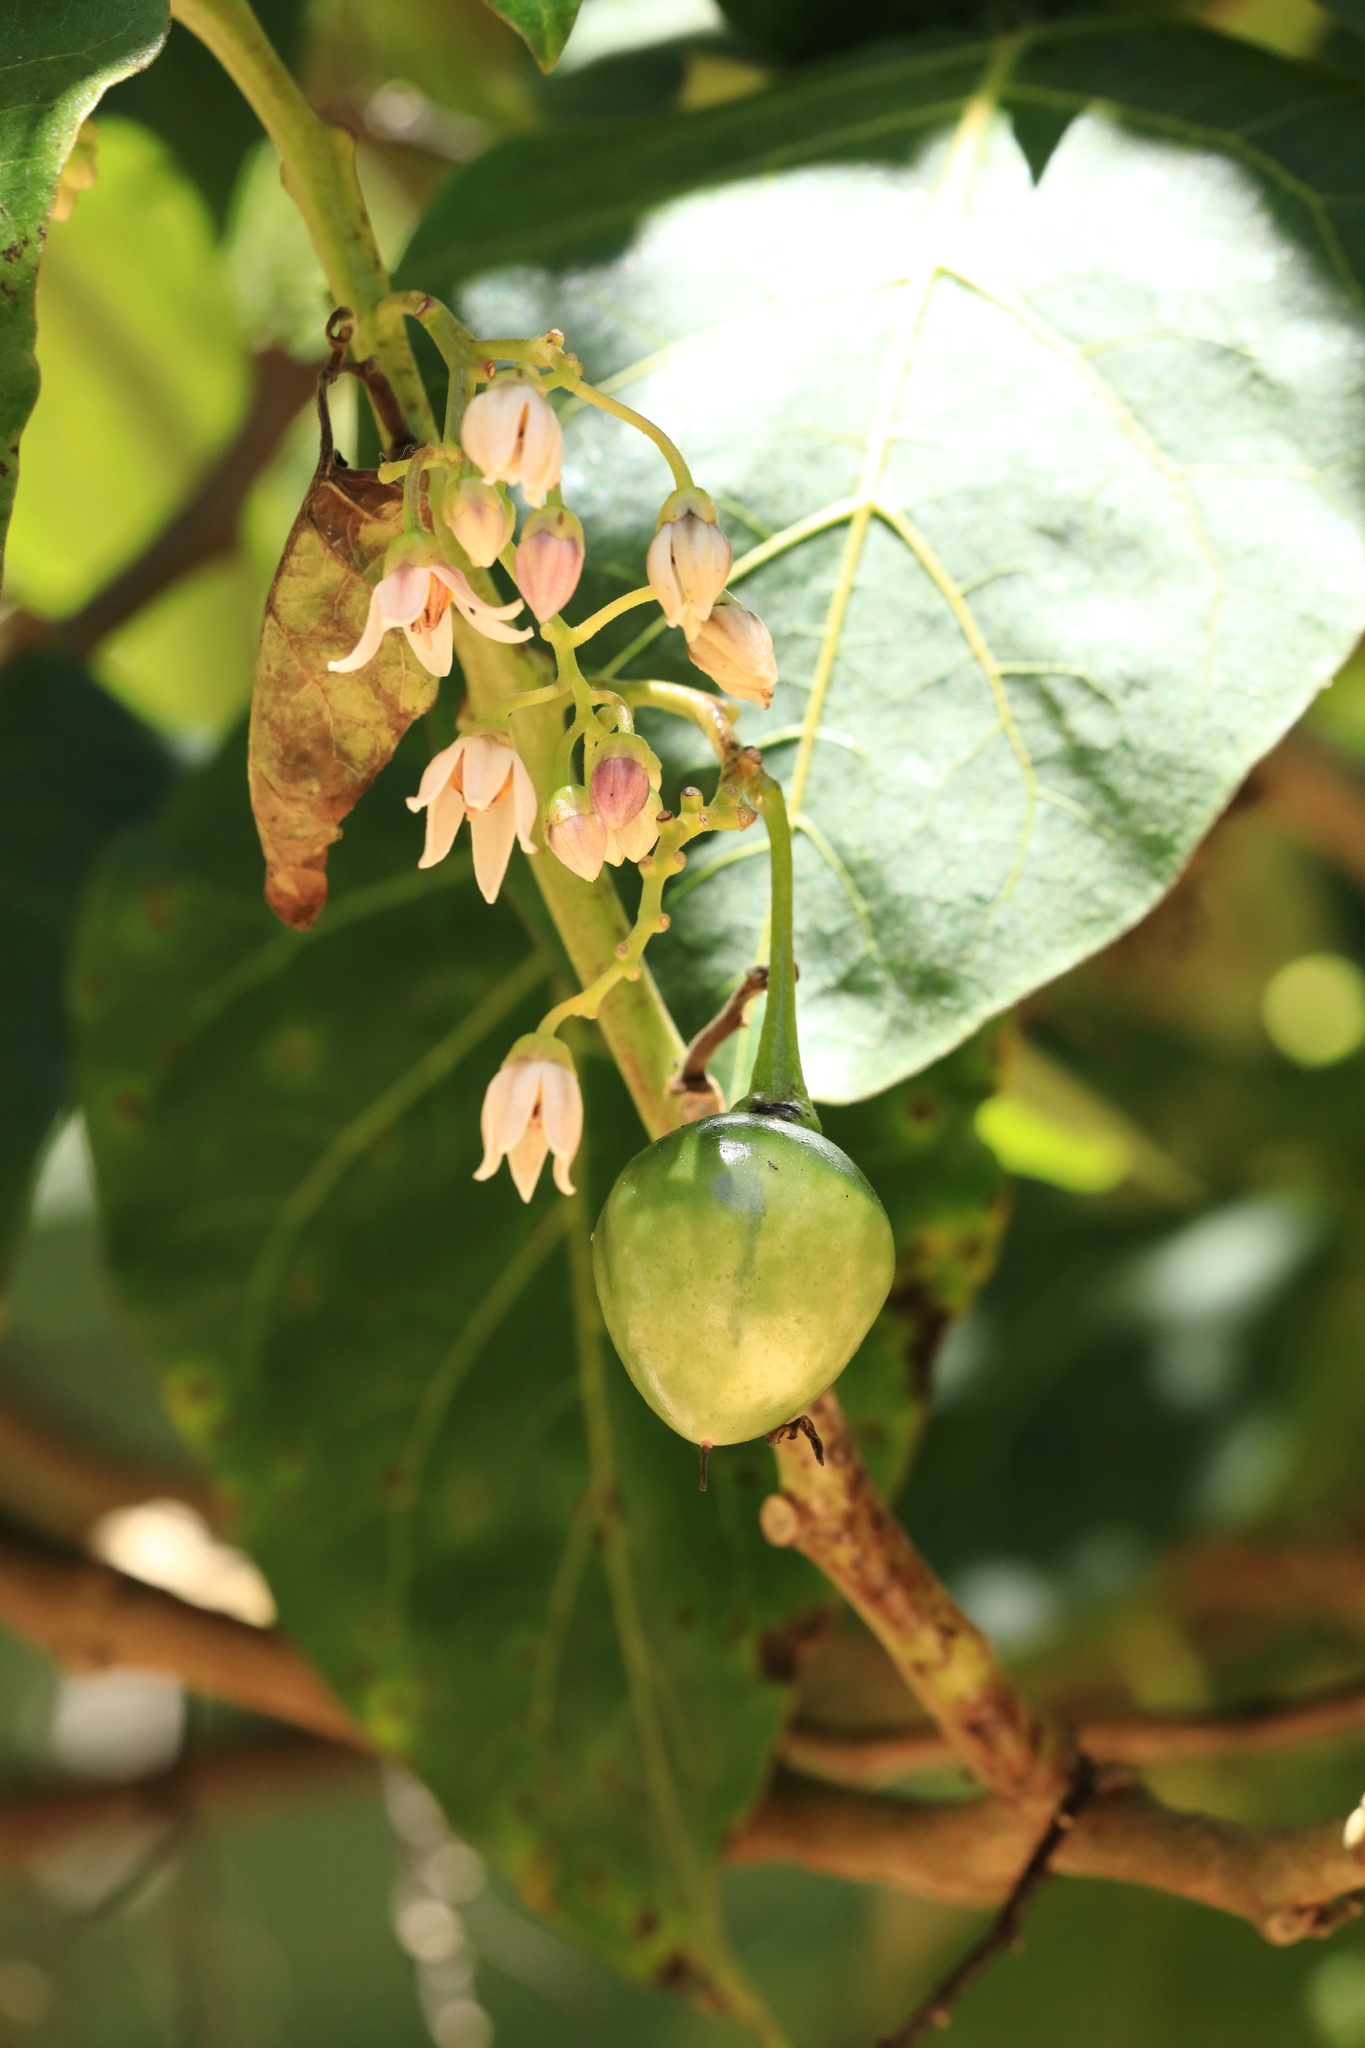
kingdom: Plantae
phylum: Tracheophyta
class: Magnoliopsida
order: Solanales
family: Solanaceae
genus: Solanum
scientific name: Solanum betaceum
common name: Tamarillo
